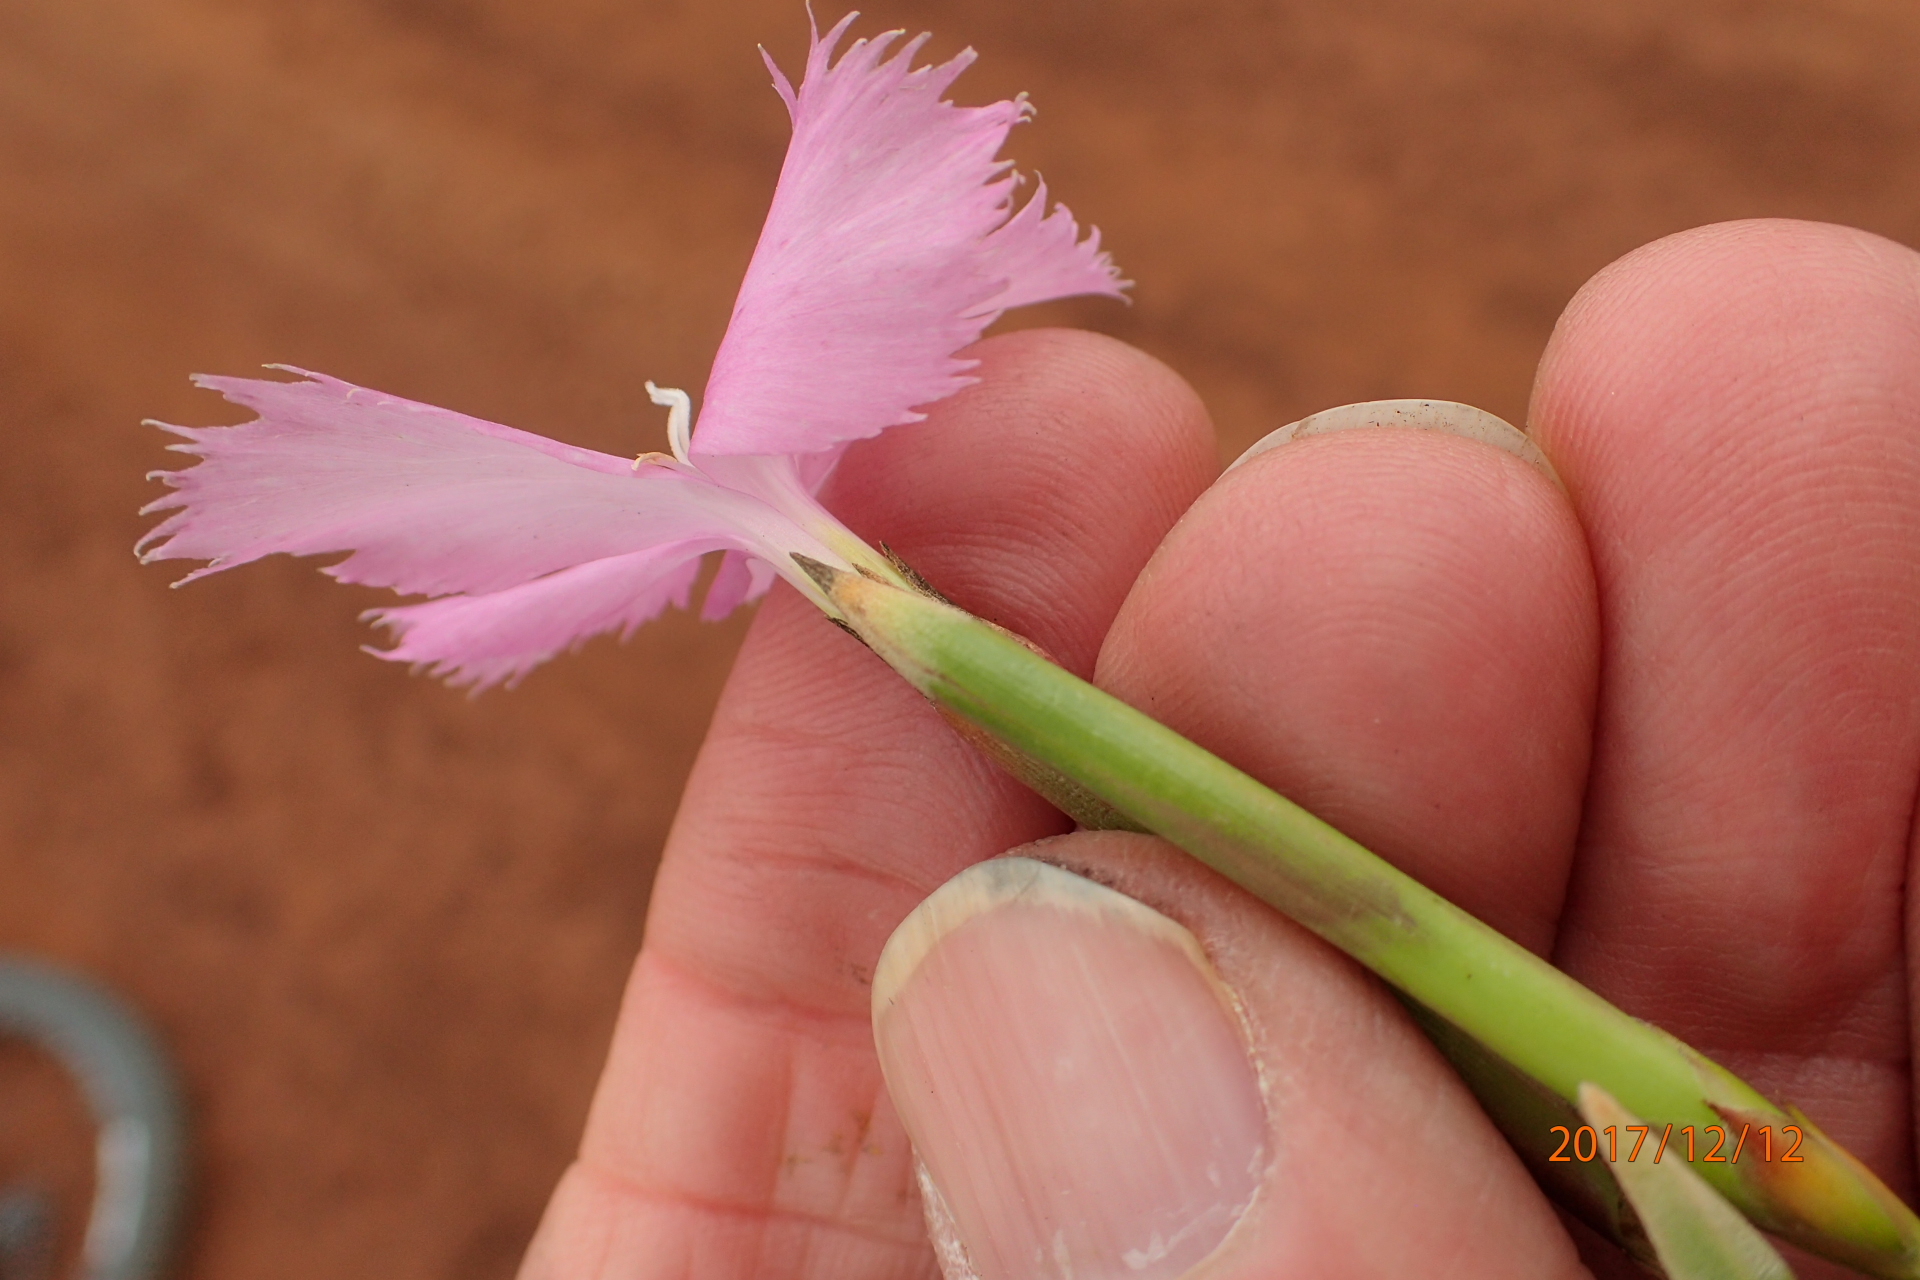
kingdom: Plantae
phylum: Tracheophyta
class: Magnoliopsida
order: Caryophyllales
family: Caryophyllaceae
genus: Dianthus
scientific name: Dianthus zeyheri
